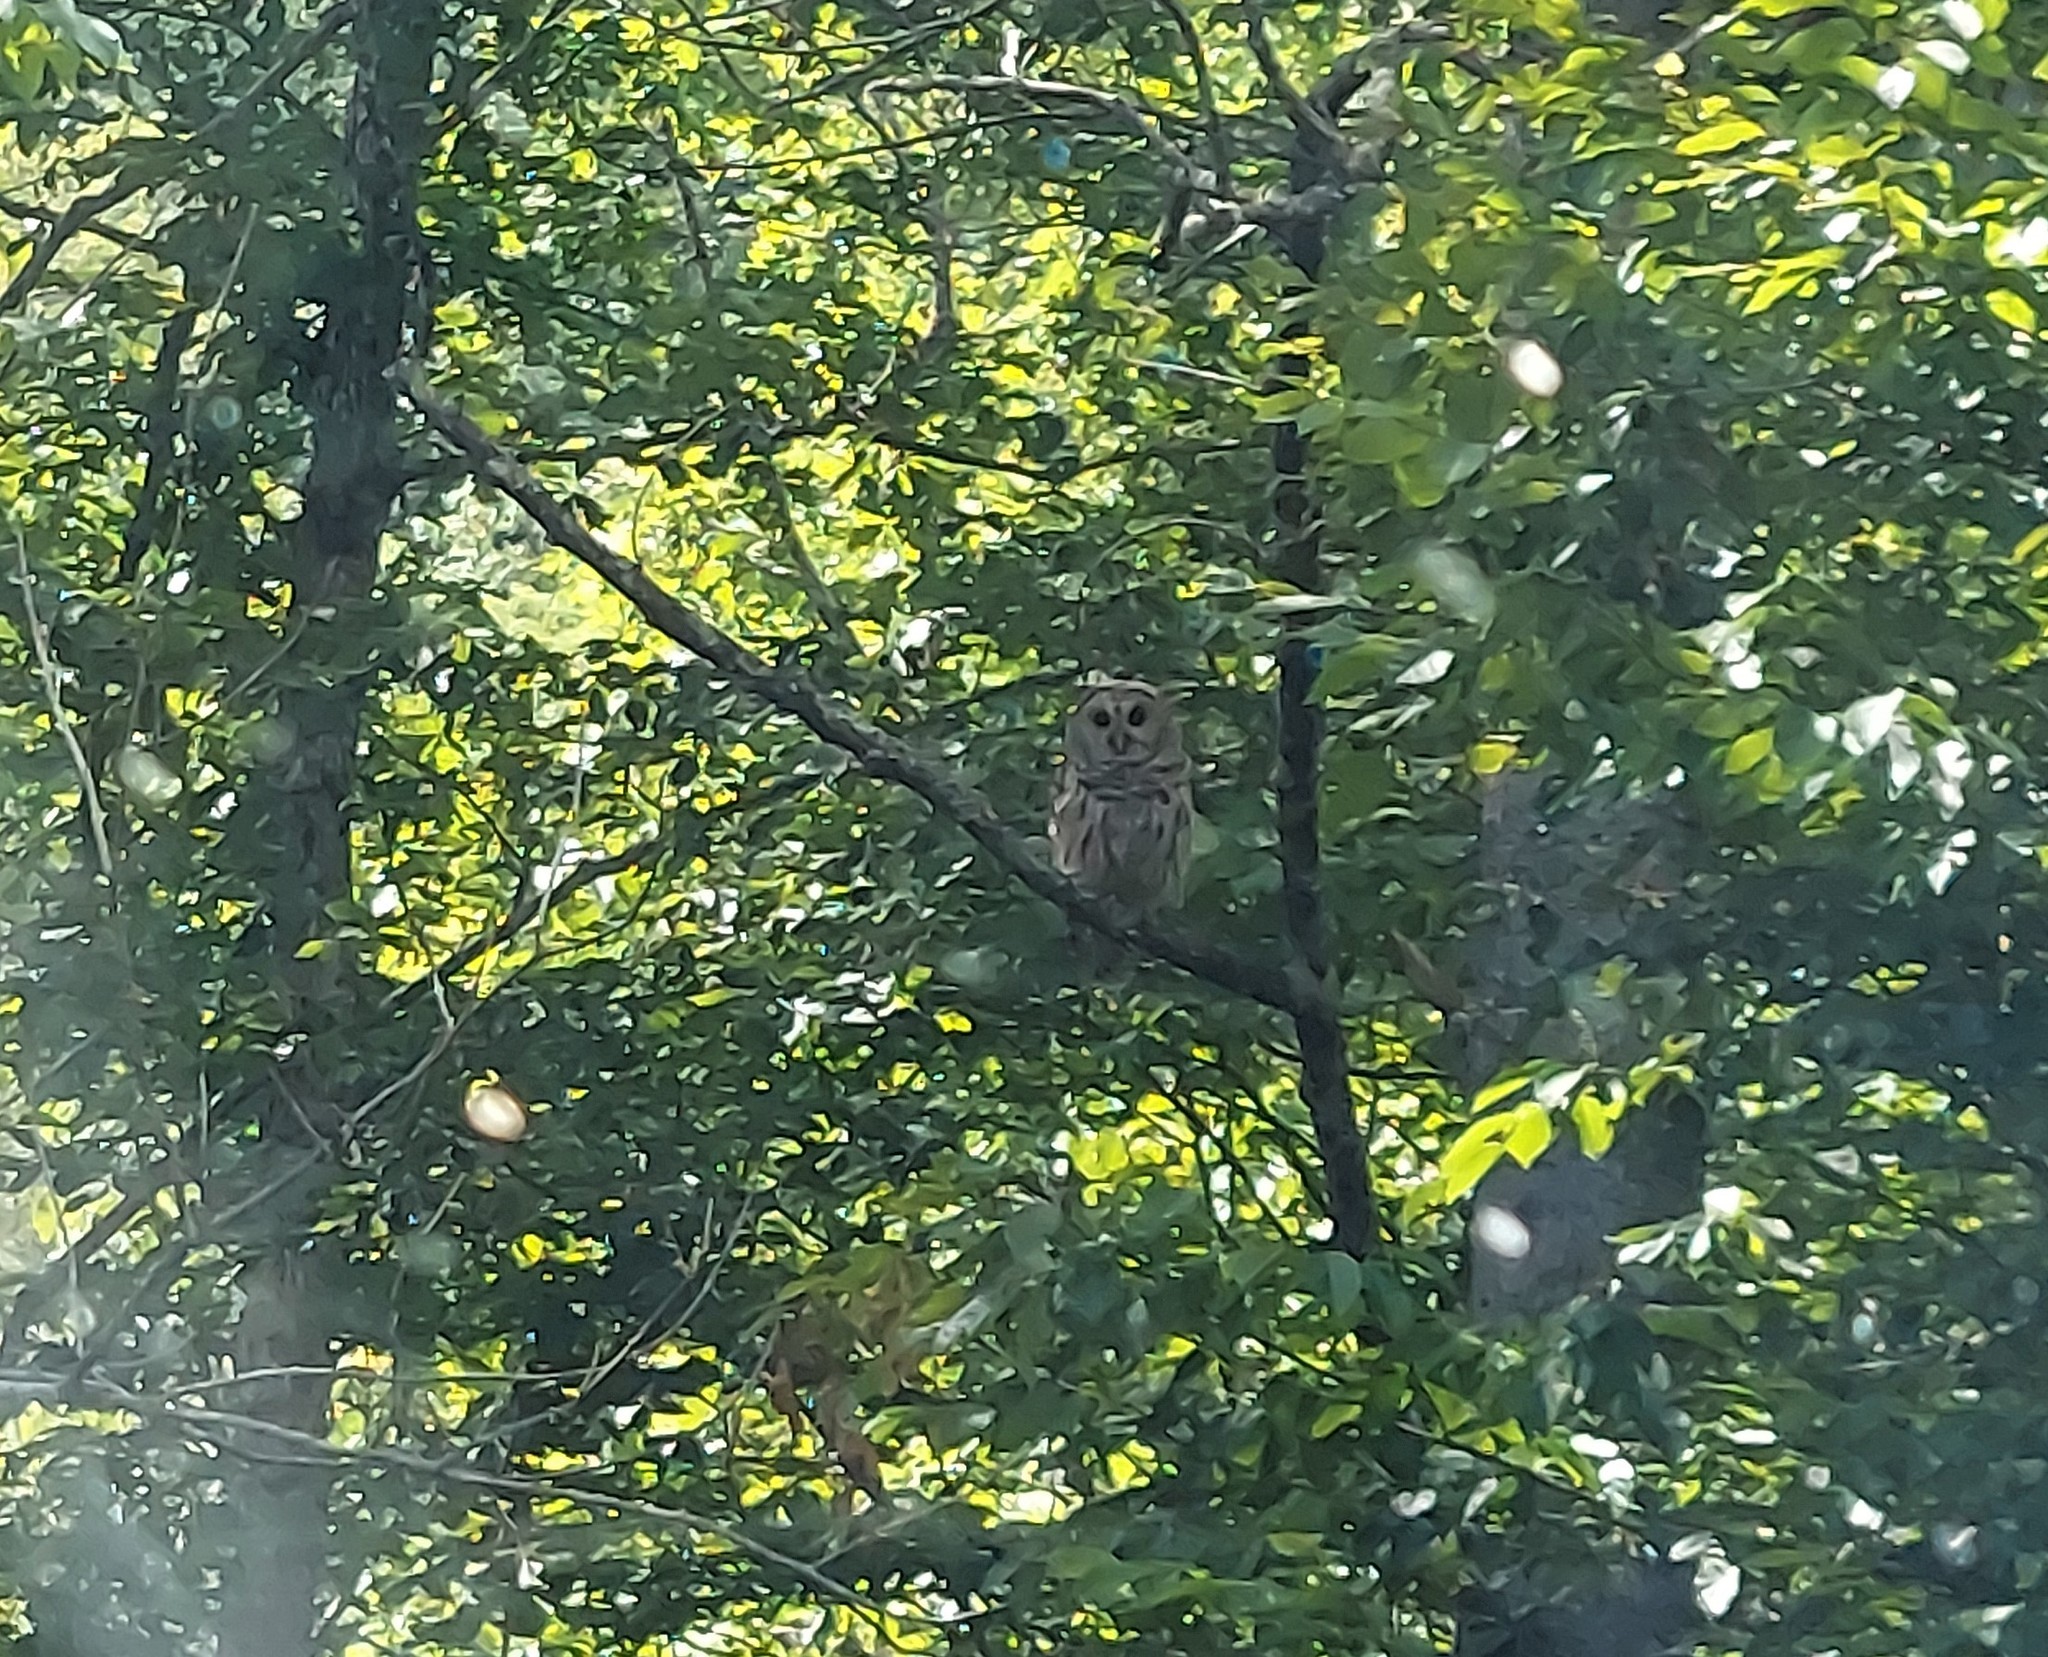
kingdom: Animalia
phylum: Chordata
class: Aves
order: Strigiformes
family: Strigidae
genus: Strix
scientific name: Strix varia
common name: Barred owl
